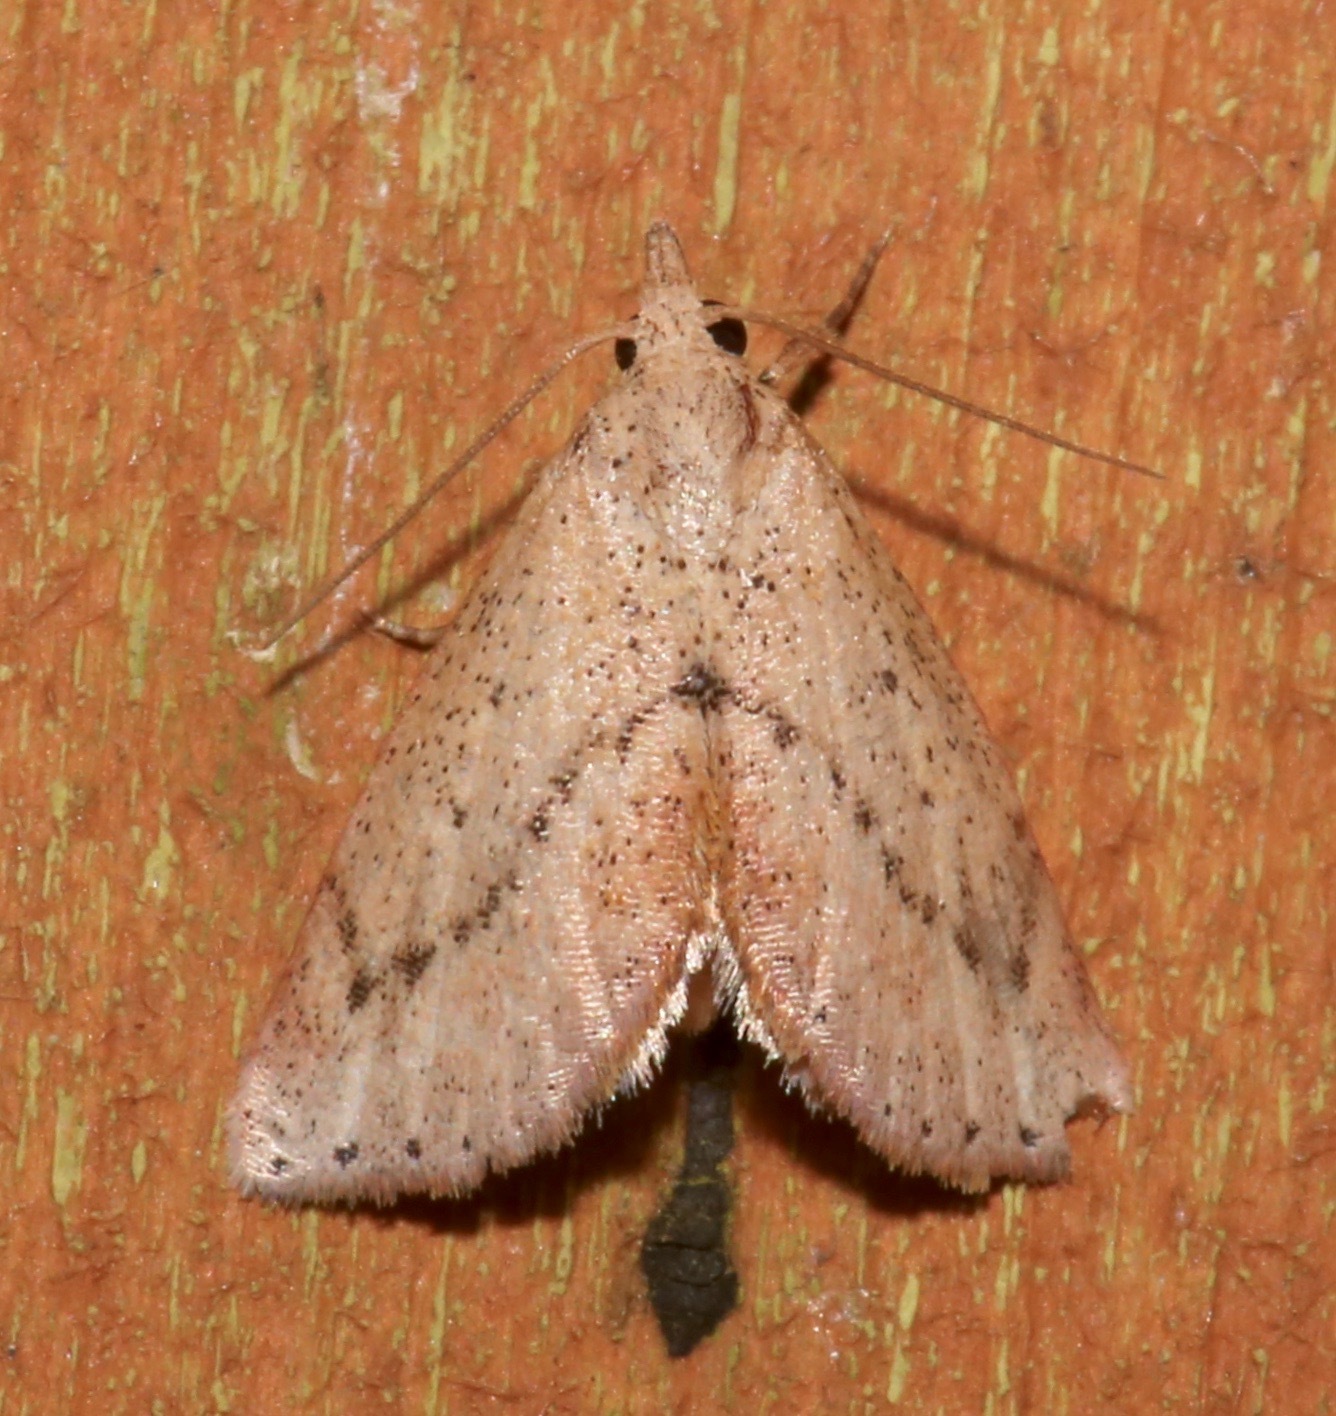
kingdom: Animalia
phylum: Arthropoda
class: Insecta
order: Lepidoptera
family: Noctuidae
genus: Proroblemma
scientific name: Proroblemma testa
